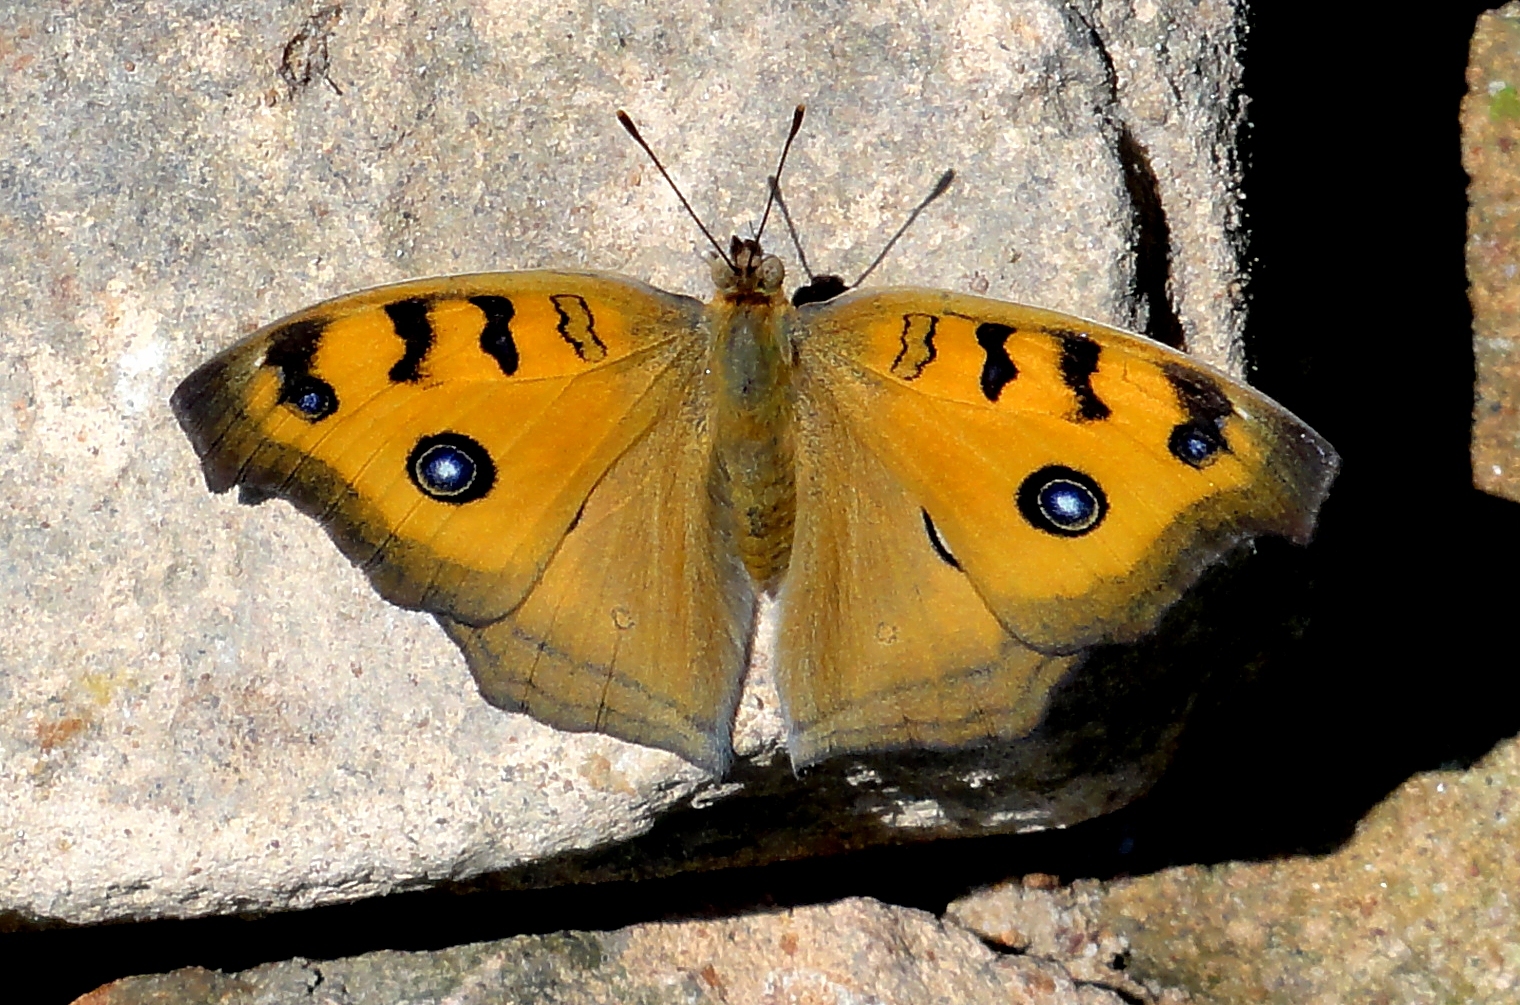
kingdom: Animalia
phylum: Arthropoda
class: Insecta
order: Lepidoptera
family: Nymphalidae
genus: Junonia
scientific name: Junonia almana
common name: Peacock pansy
